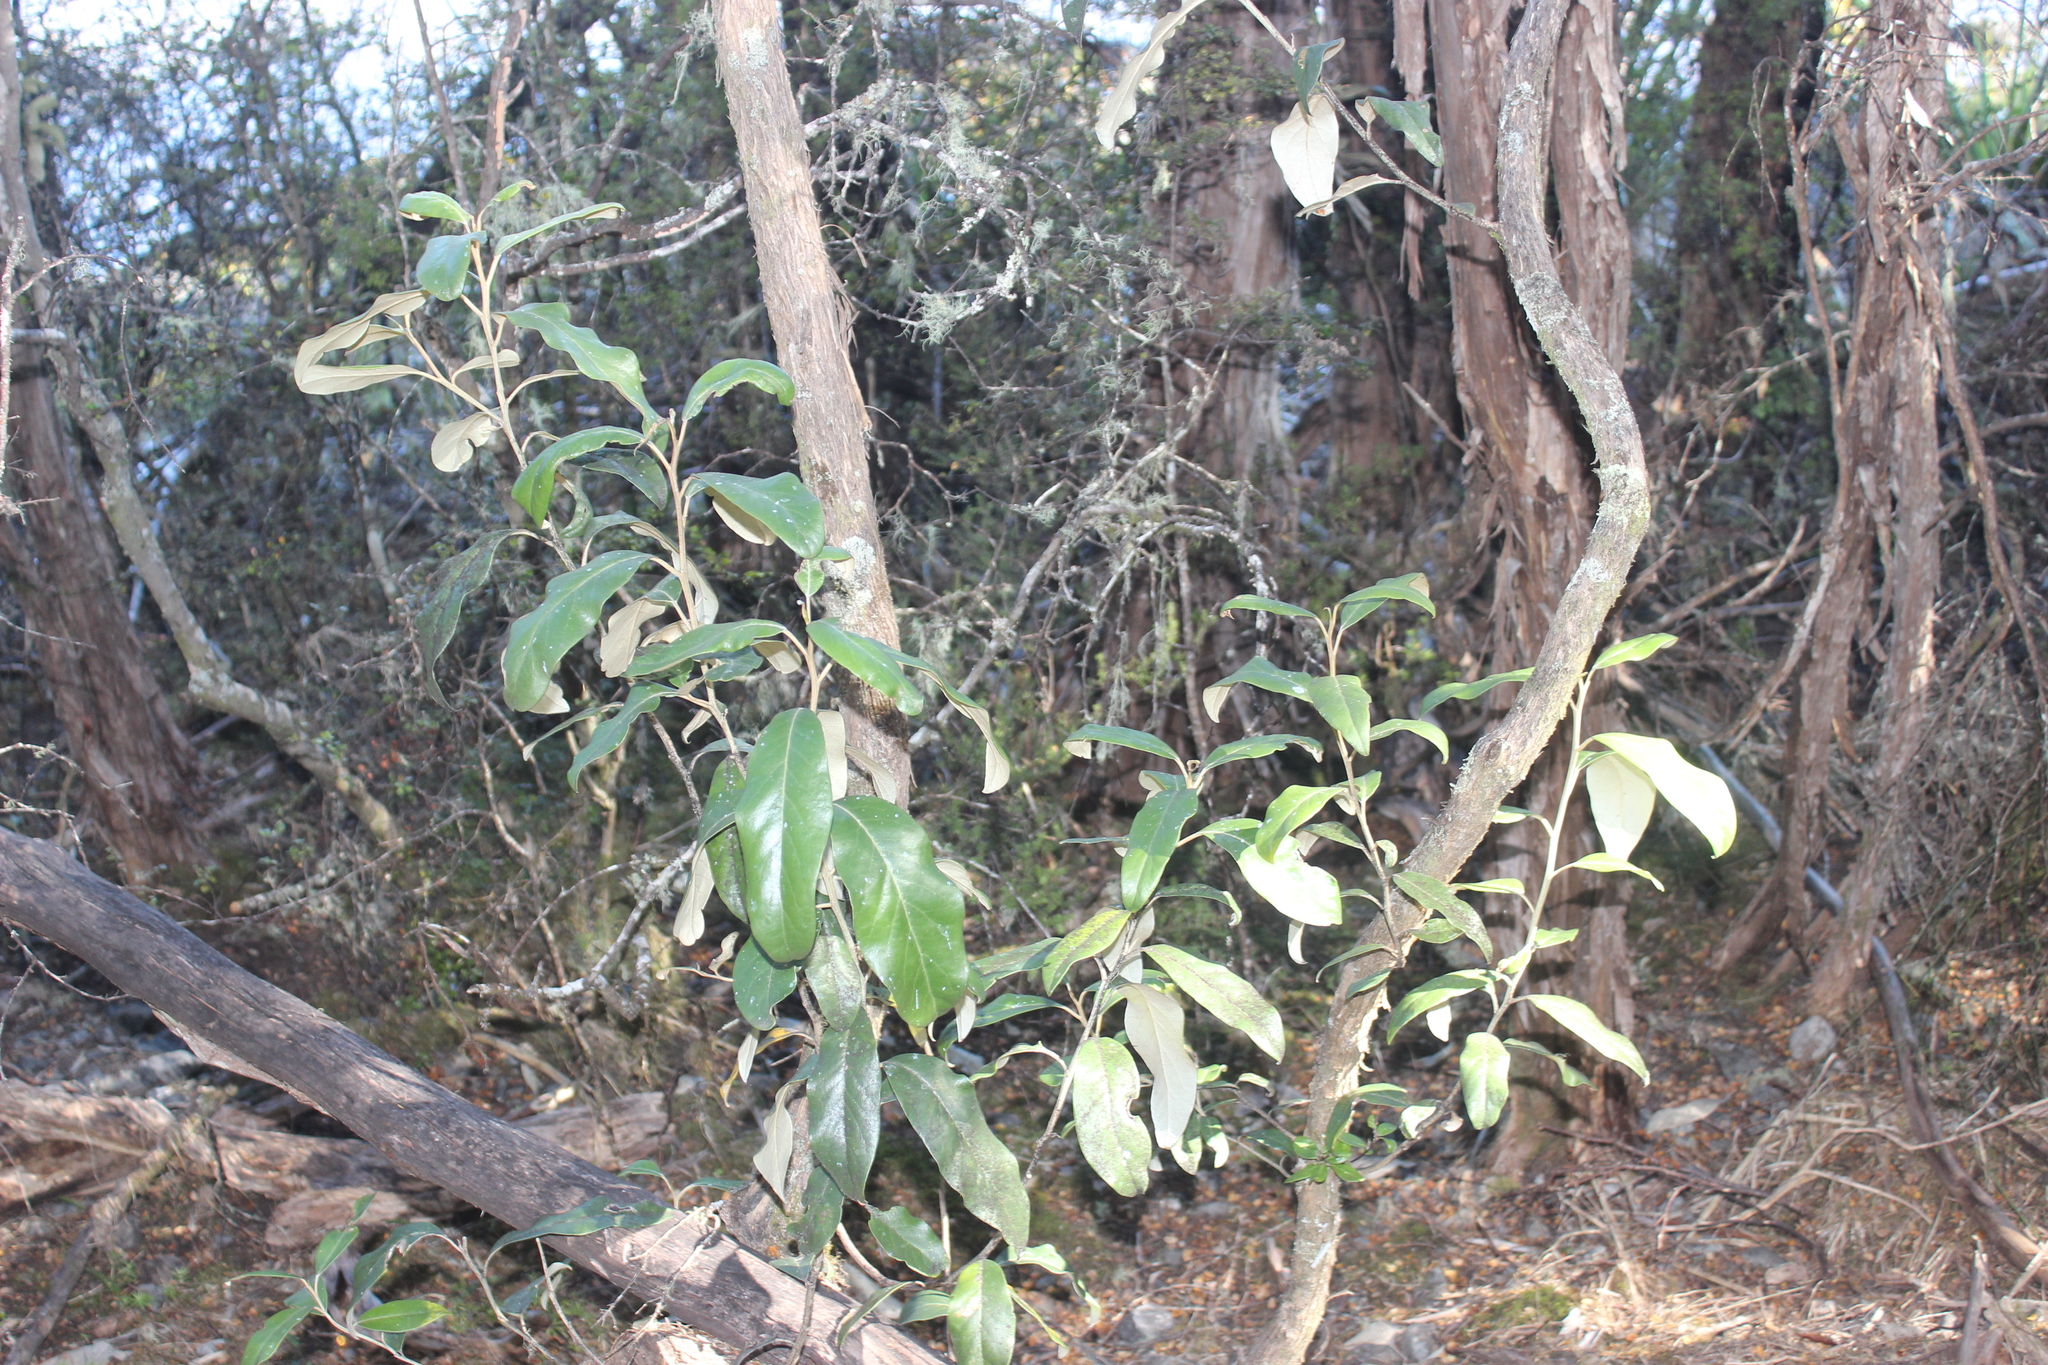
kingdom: Plantae
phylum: Tracheophyta
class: Magnoliopsida
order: Apiales
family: Pittosporaceae
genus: Pittosporum
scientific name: Pittosporum ralphii
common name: Ralph's desertwillow
